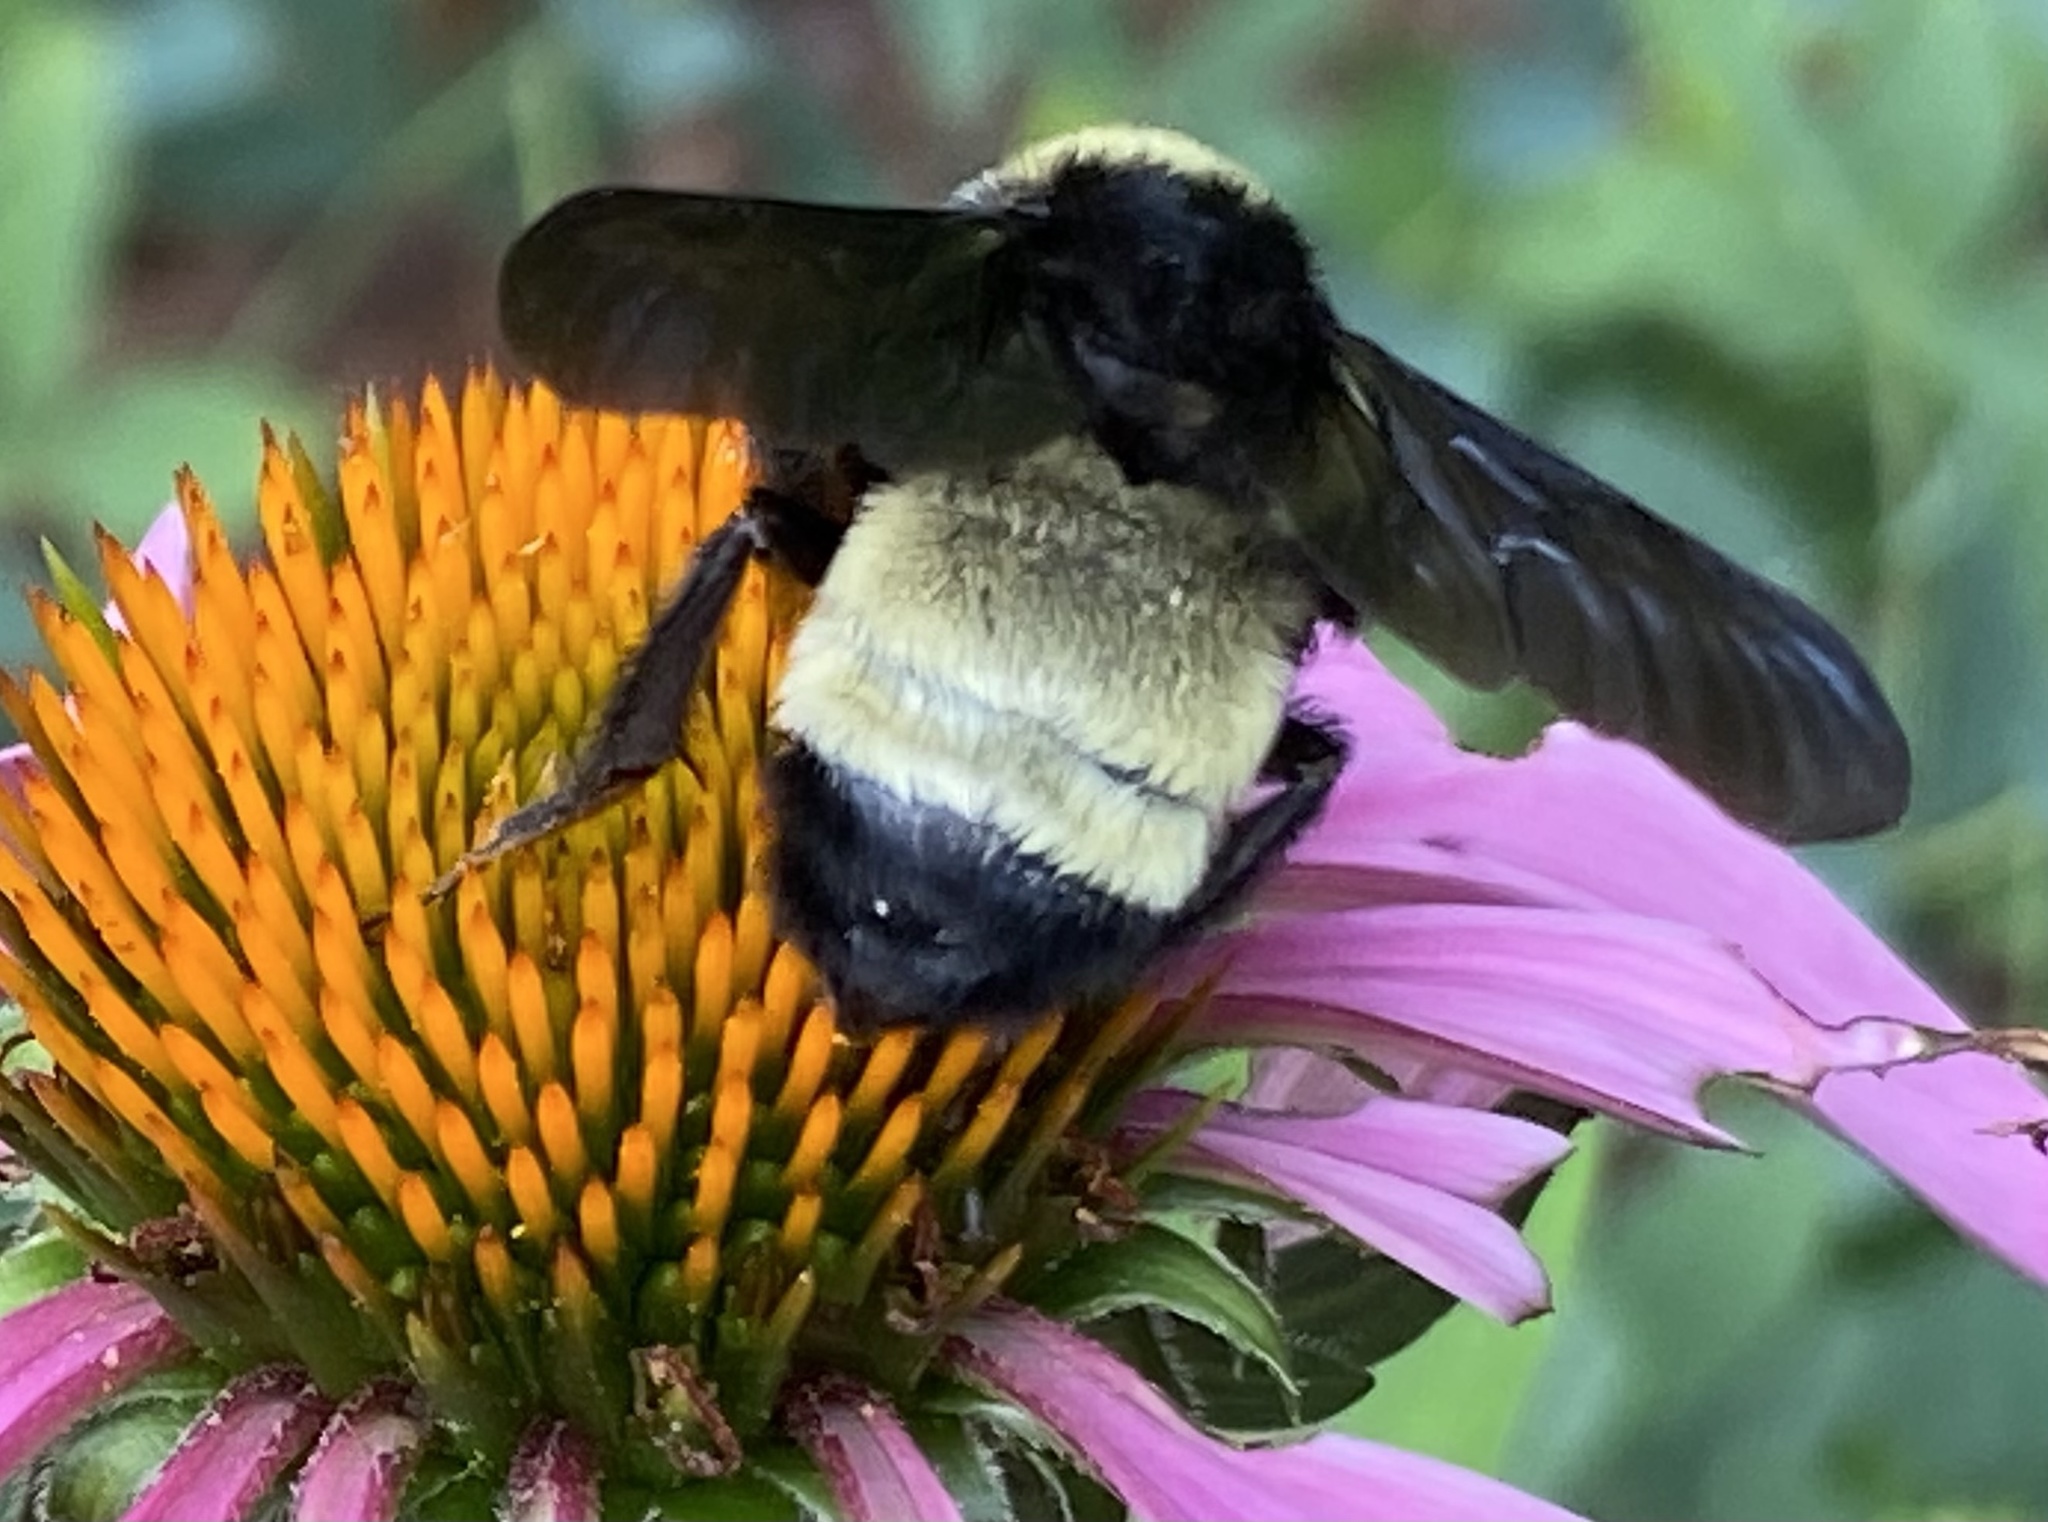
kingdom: Animalia
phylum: Arthropoda
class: Insecta
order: Hymenoptera
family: Apidae
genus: Bombus
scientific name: Bombus pensylvanicus
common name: Bumble bee
